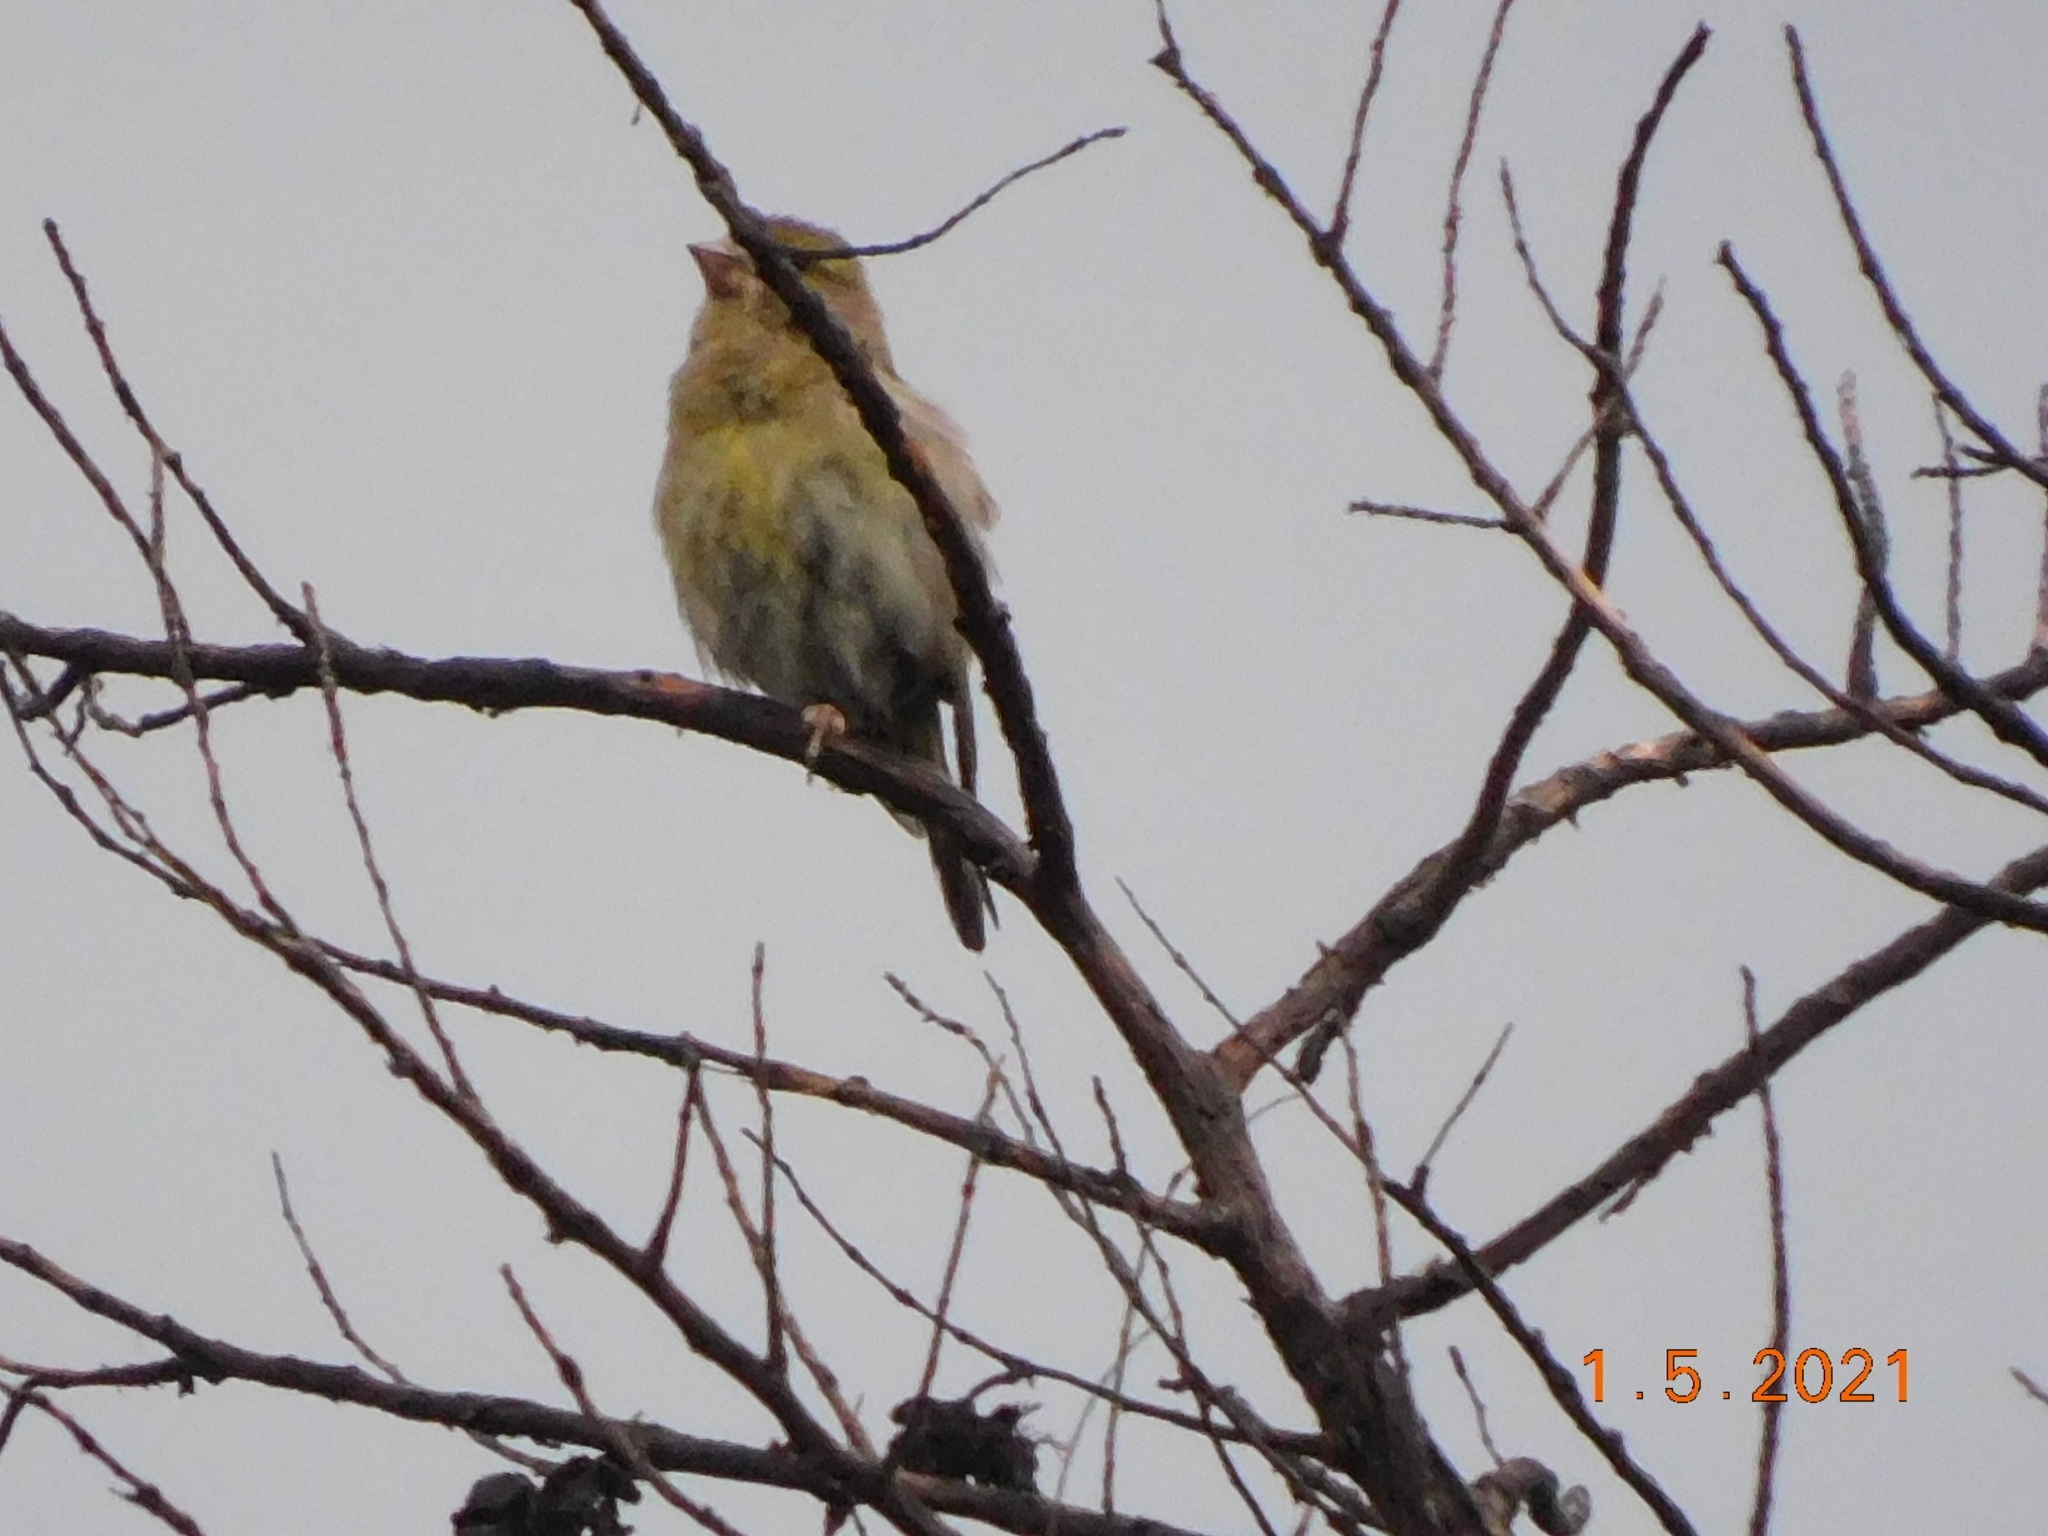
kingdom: Plantae
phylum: Tracheophyta
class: Liliopsida
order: Poales
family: Poaceae
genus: Chloris
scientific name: Chloris chloris
